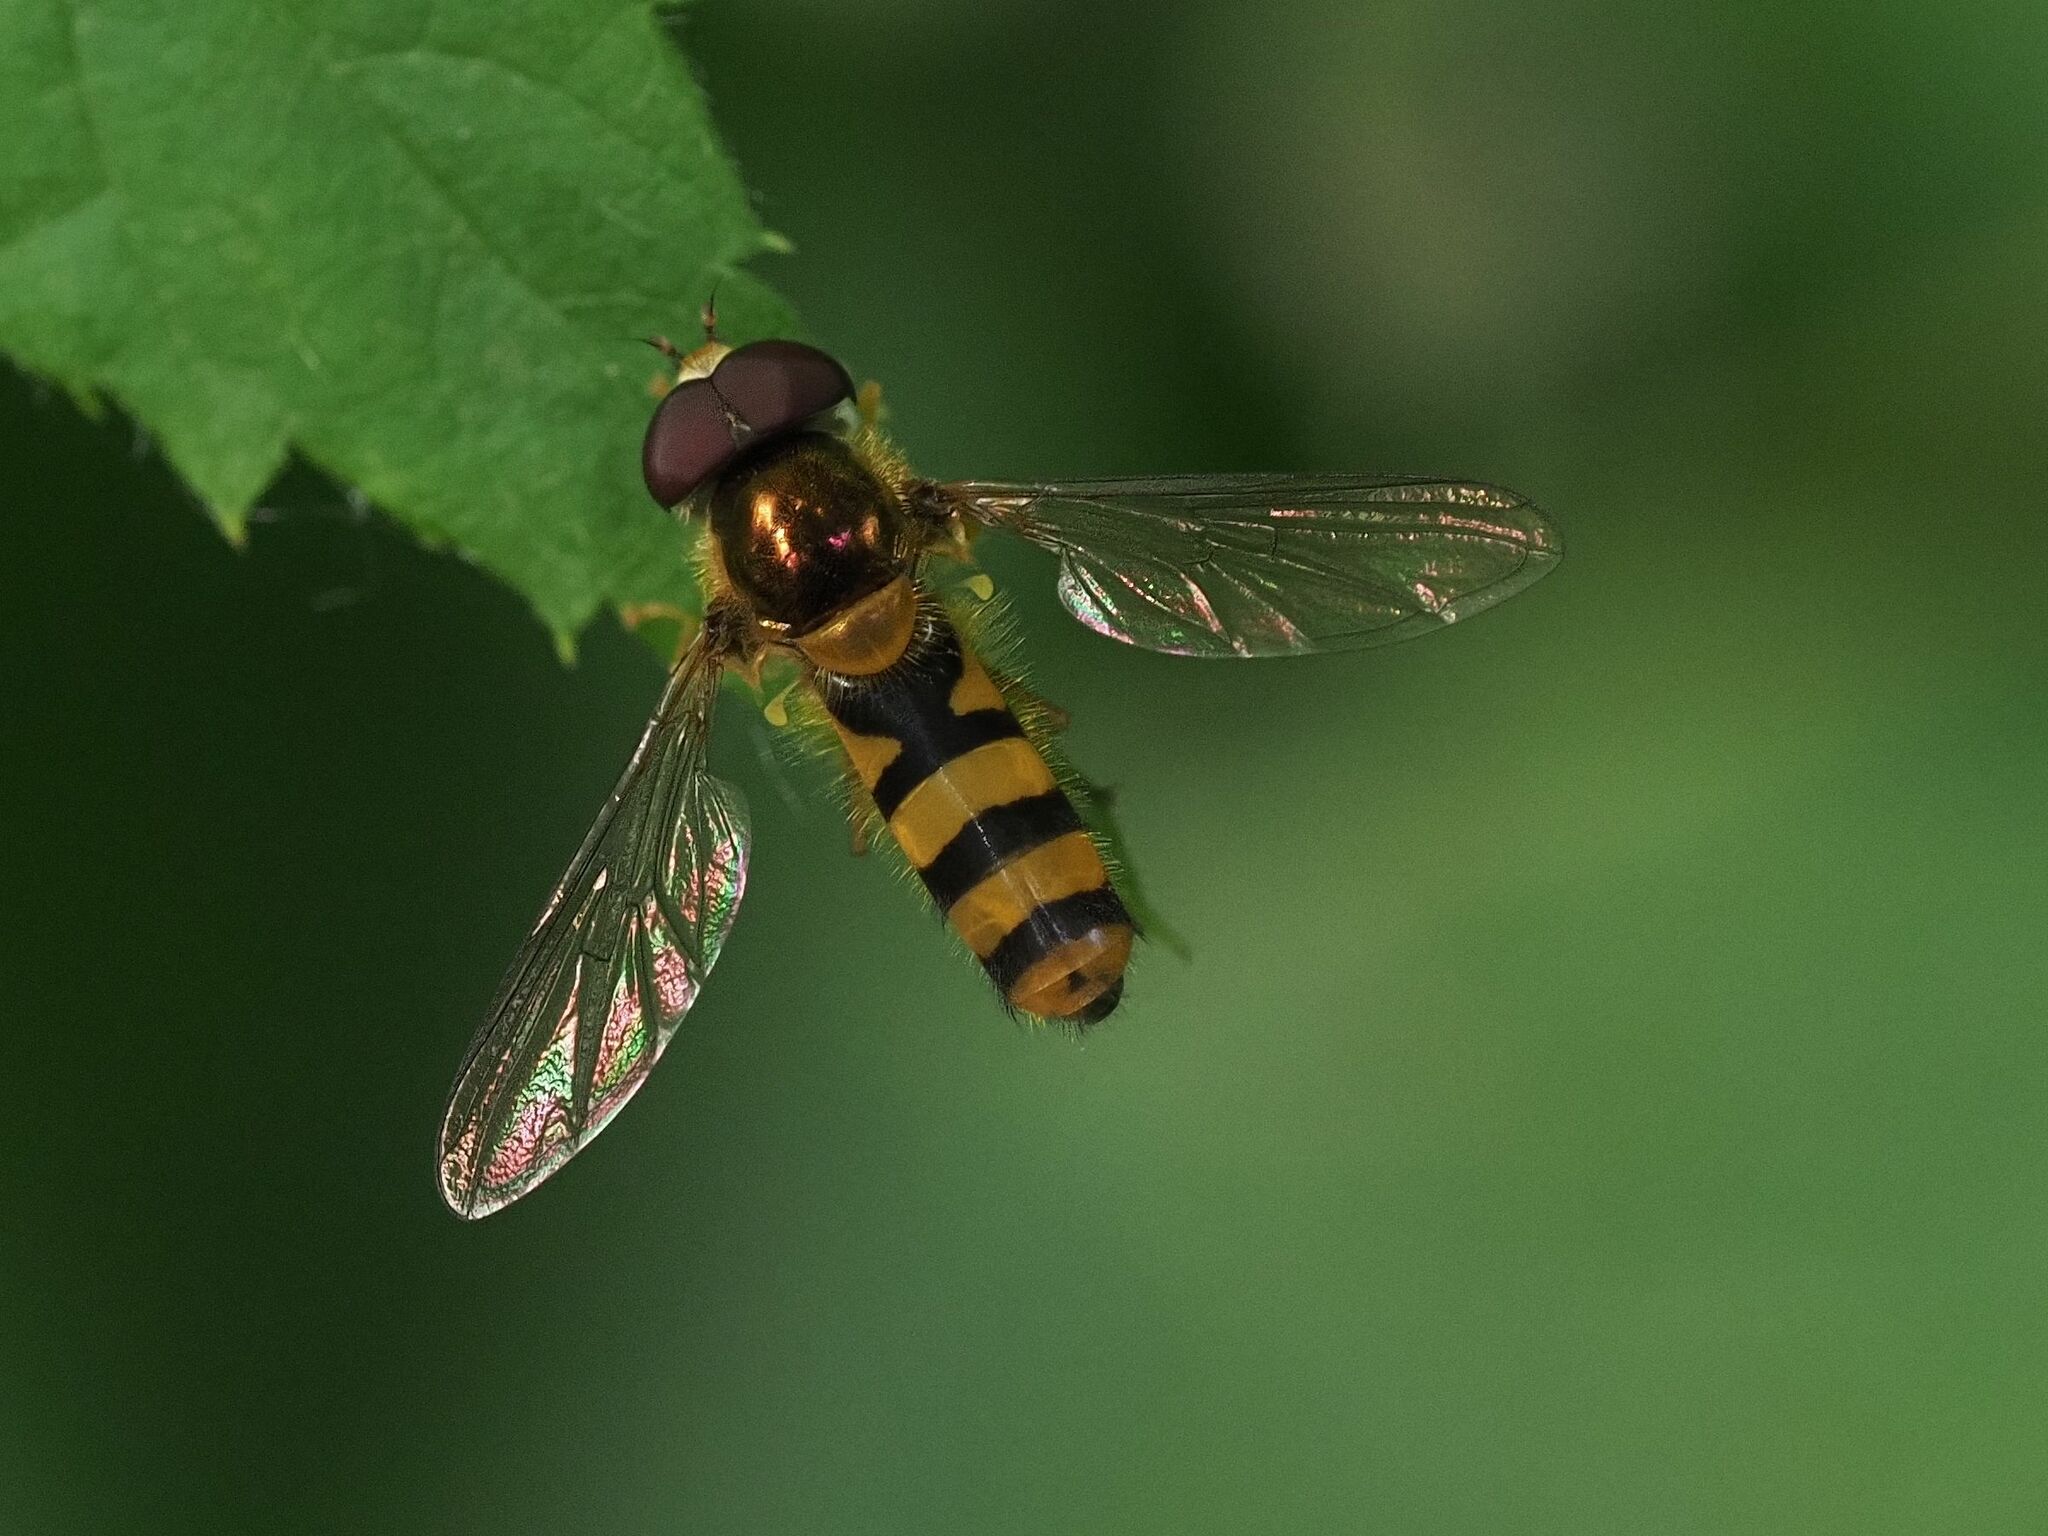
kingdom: Animalia
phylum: Arthropoda
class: Insecta
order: Diptera
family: Syrphidae
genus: Fagisyrphus
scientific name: Fagisyrphus cincta
